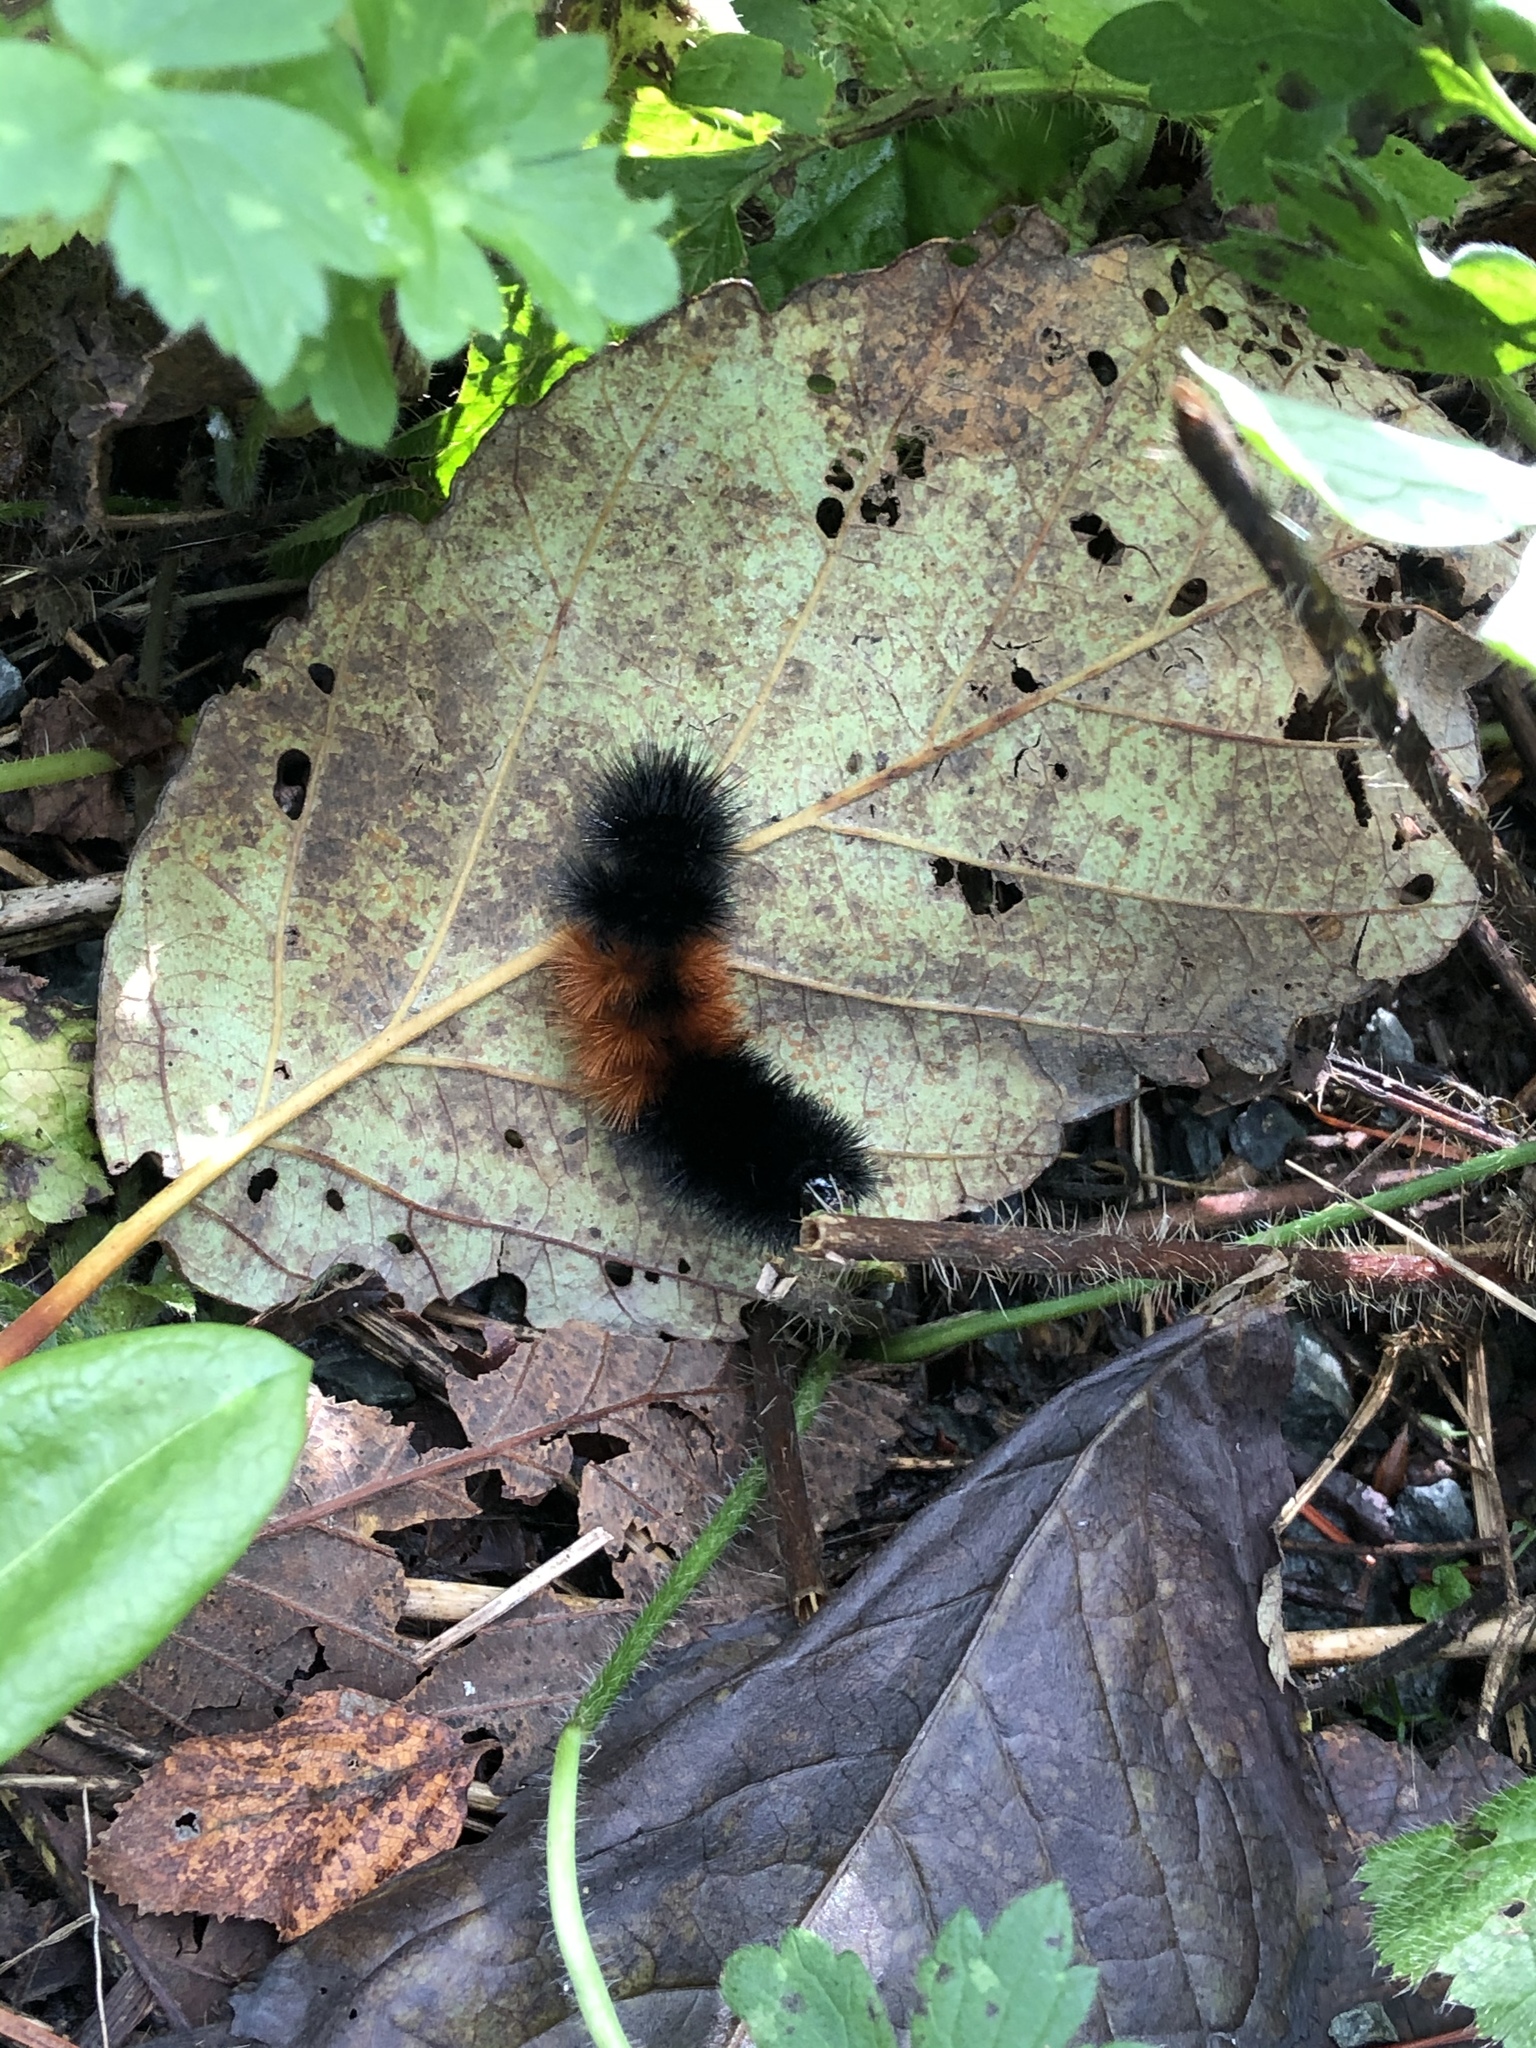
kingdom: Animalia
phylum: Arthropoda
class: Insecta
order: Lepidoptera
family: Erebidae
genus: Pyrrharctia
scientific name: Pyrrharctia isabella
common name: Isabella tiger moth
